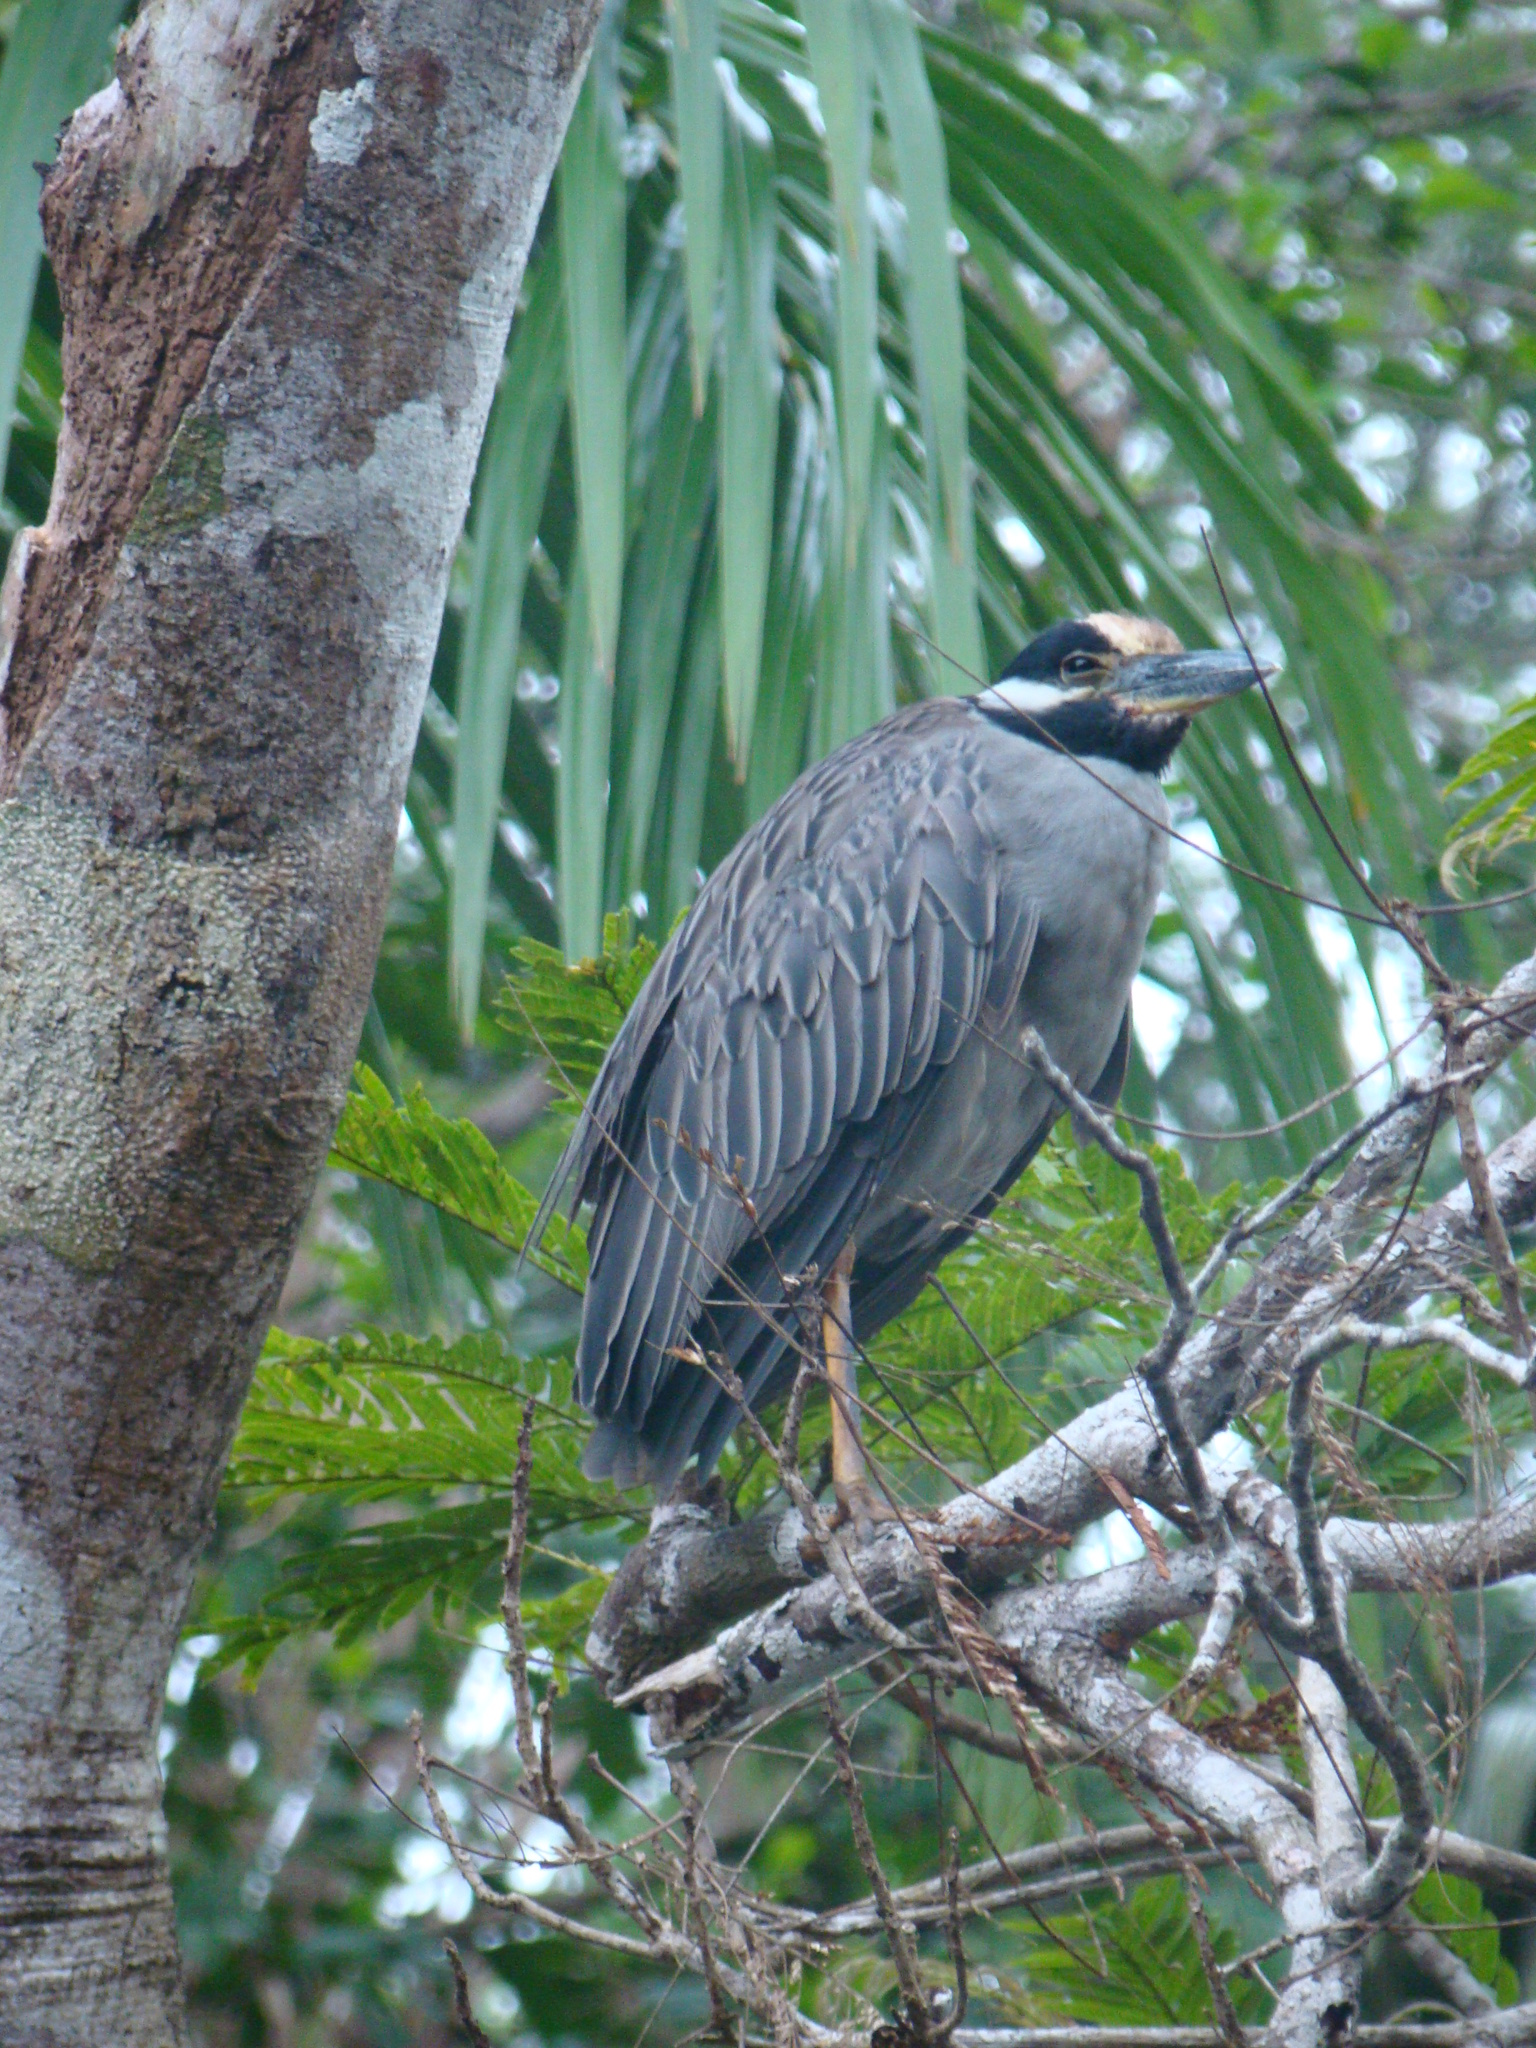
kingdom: Animalia
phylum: Chordata
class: Aves
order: Pelecaniformes
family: Ardeidae
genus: Nyctanassa
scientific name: Nyctanassa violacea
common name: Yellow-crowned night heron
